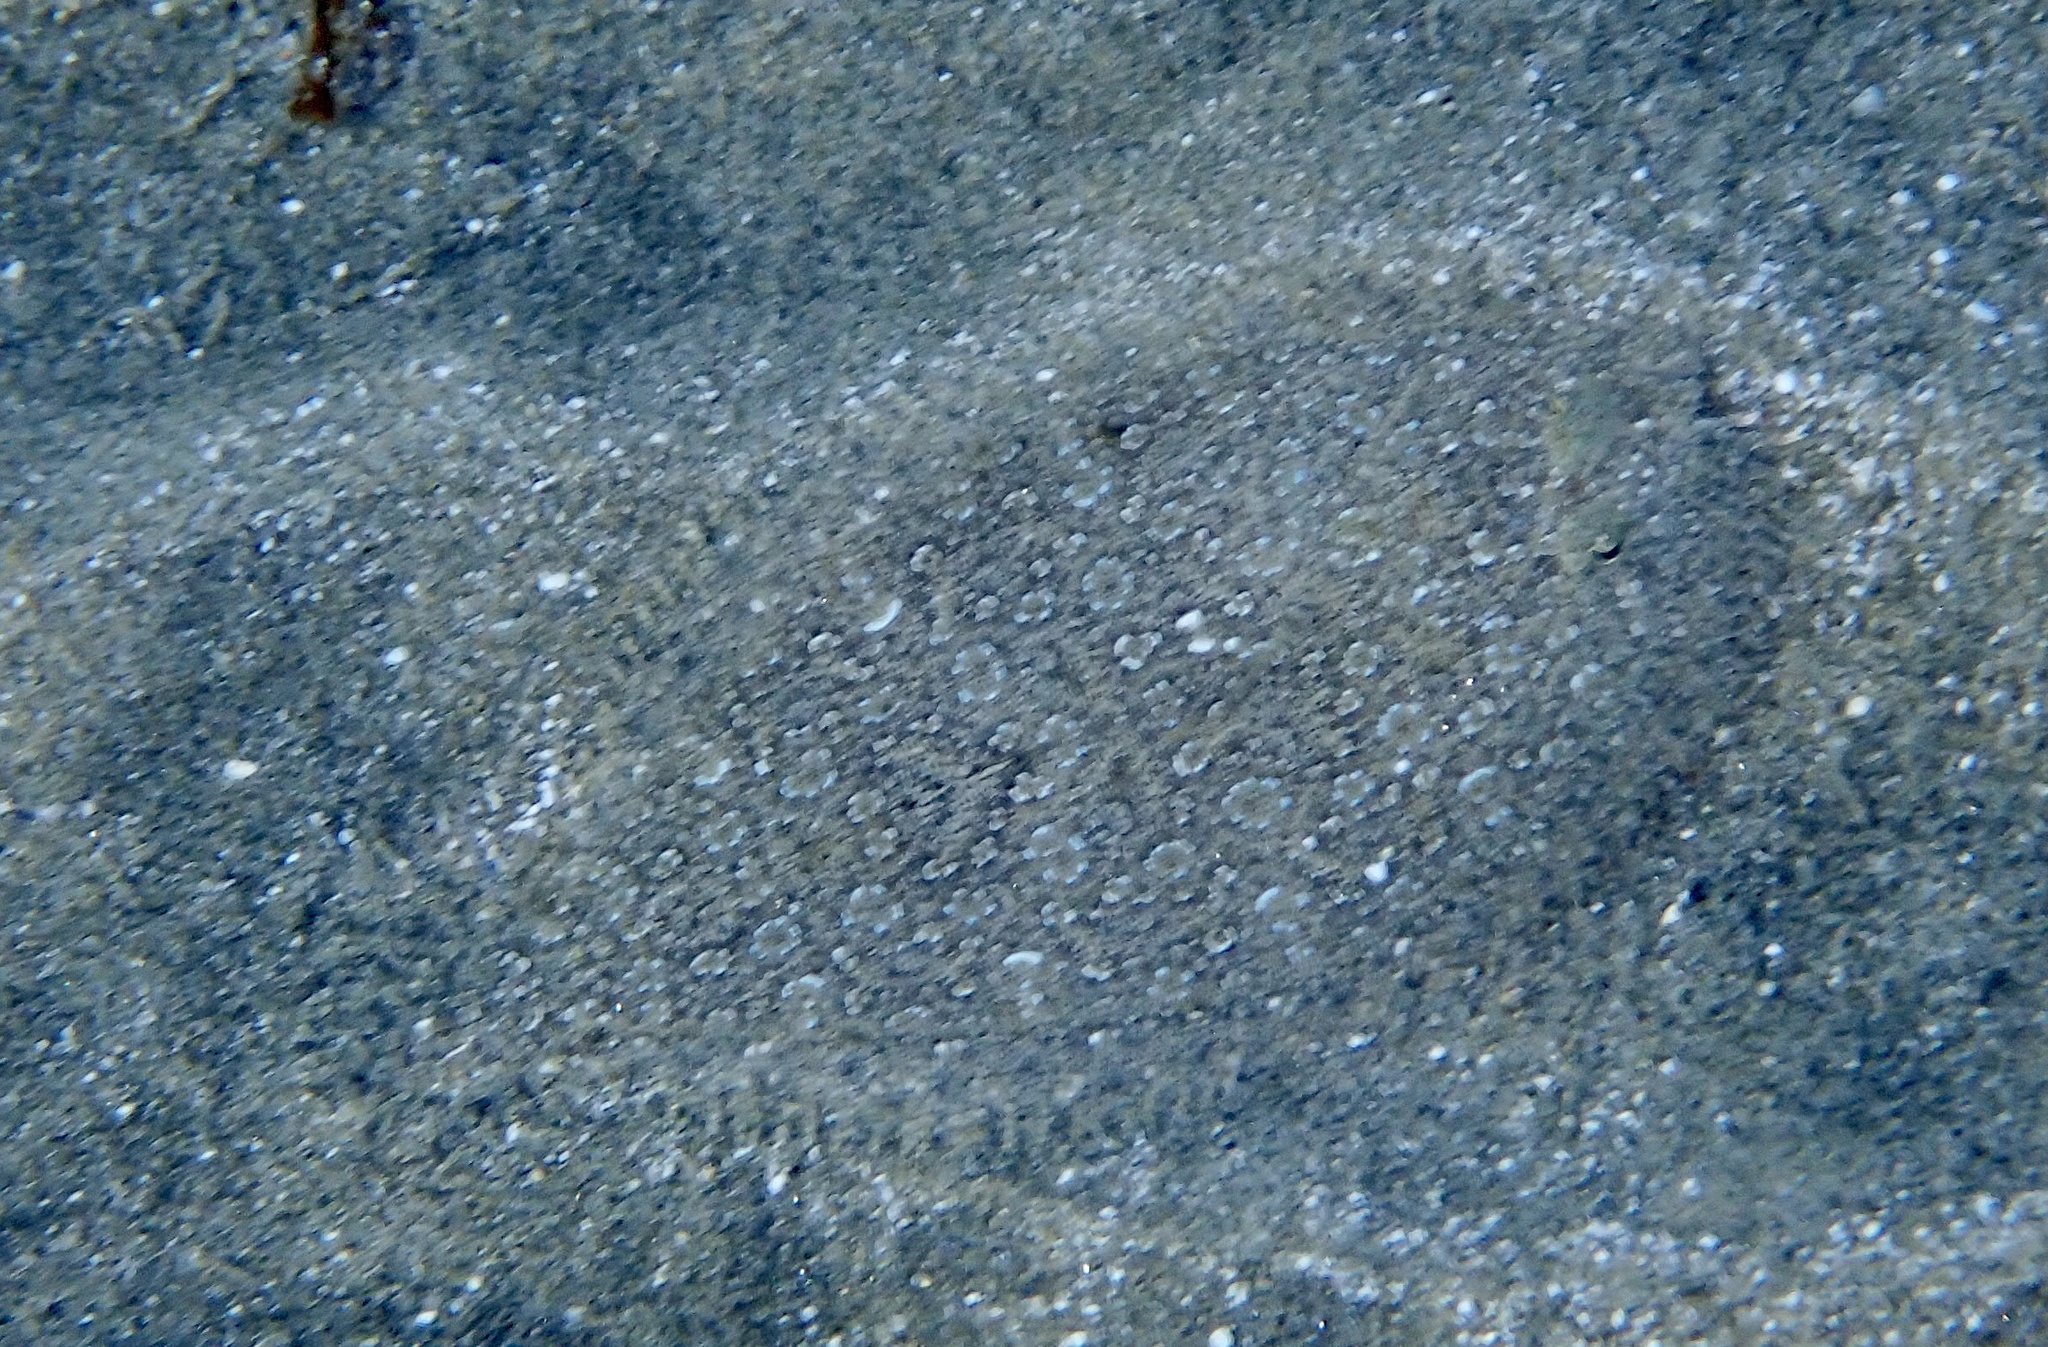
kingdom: Animalia
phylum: Chordata
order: Pleuronectiformes
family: Bothidae
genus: Bothus
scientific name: Bothus pantherinus
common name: Leopard flounder
